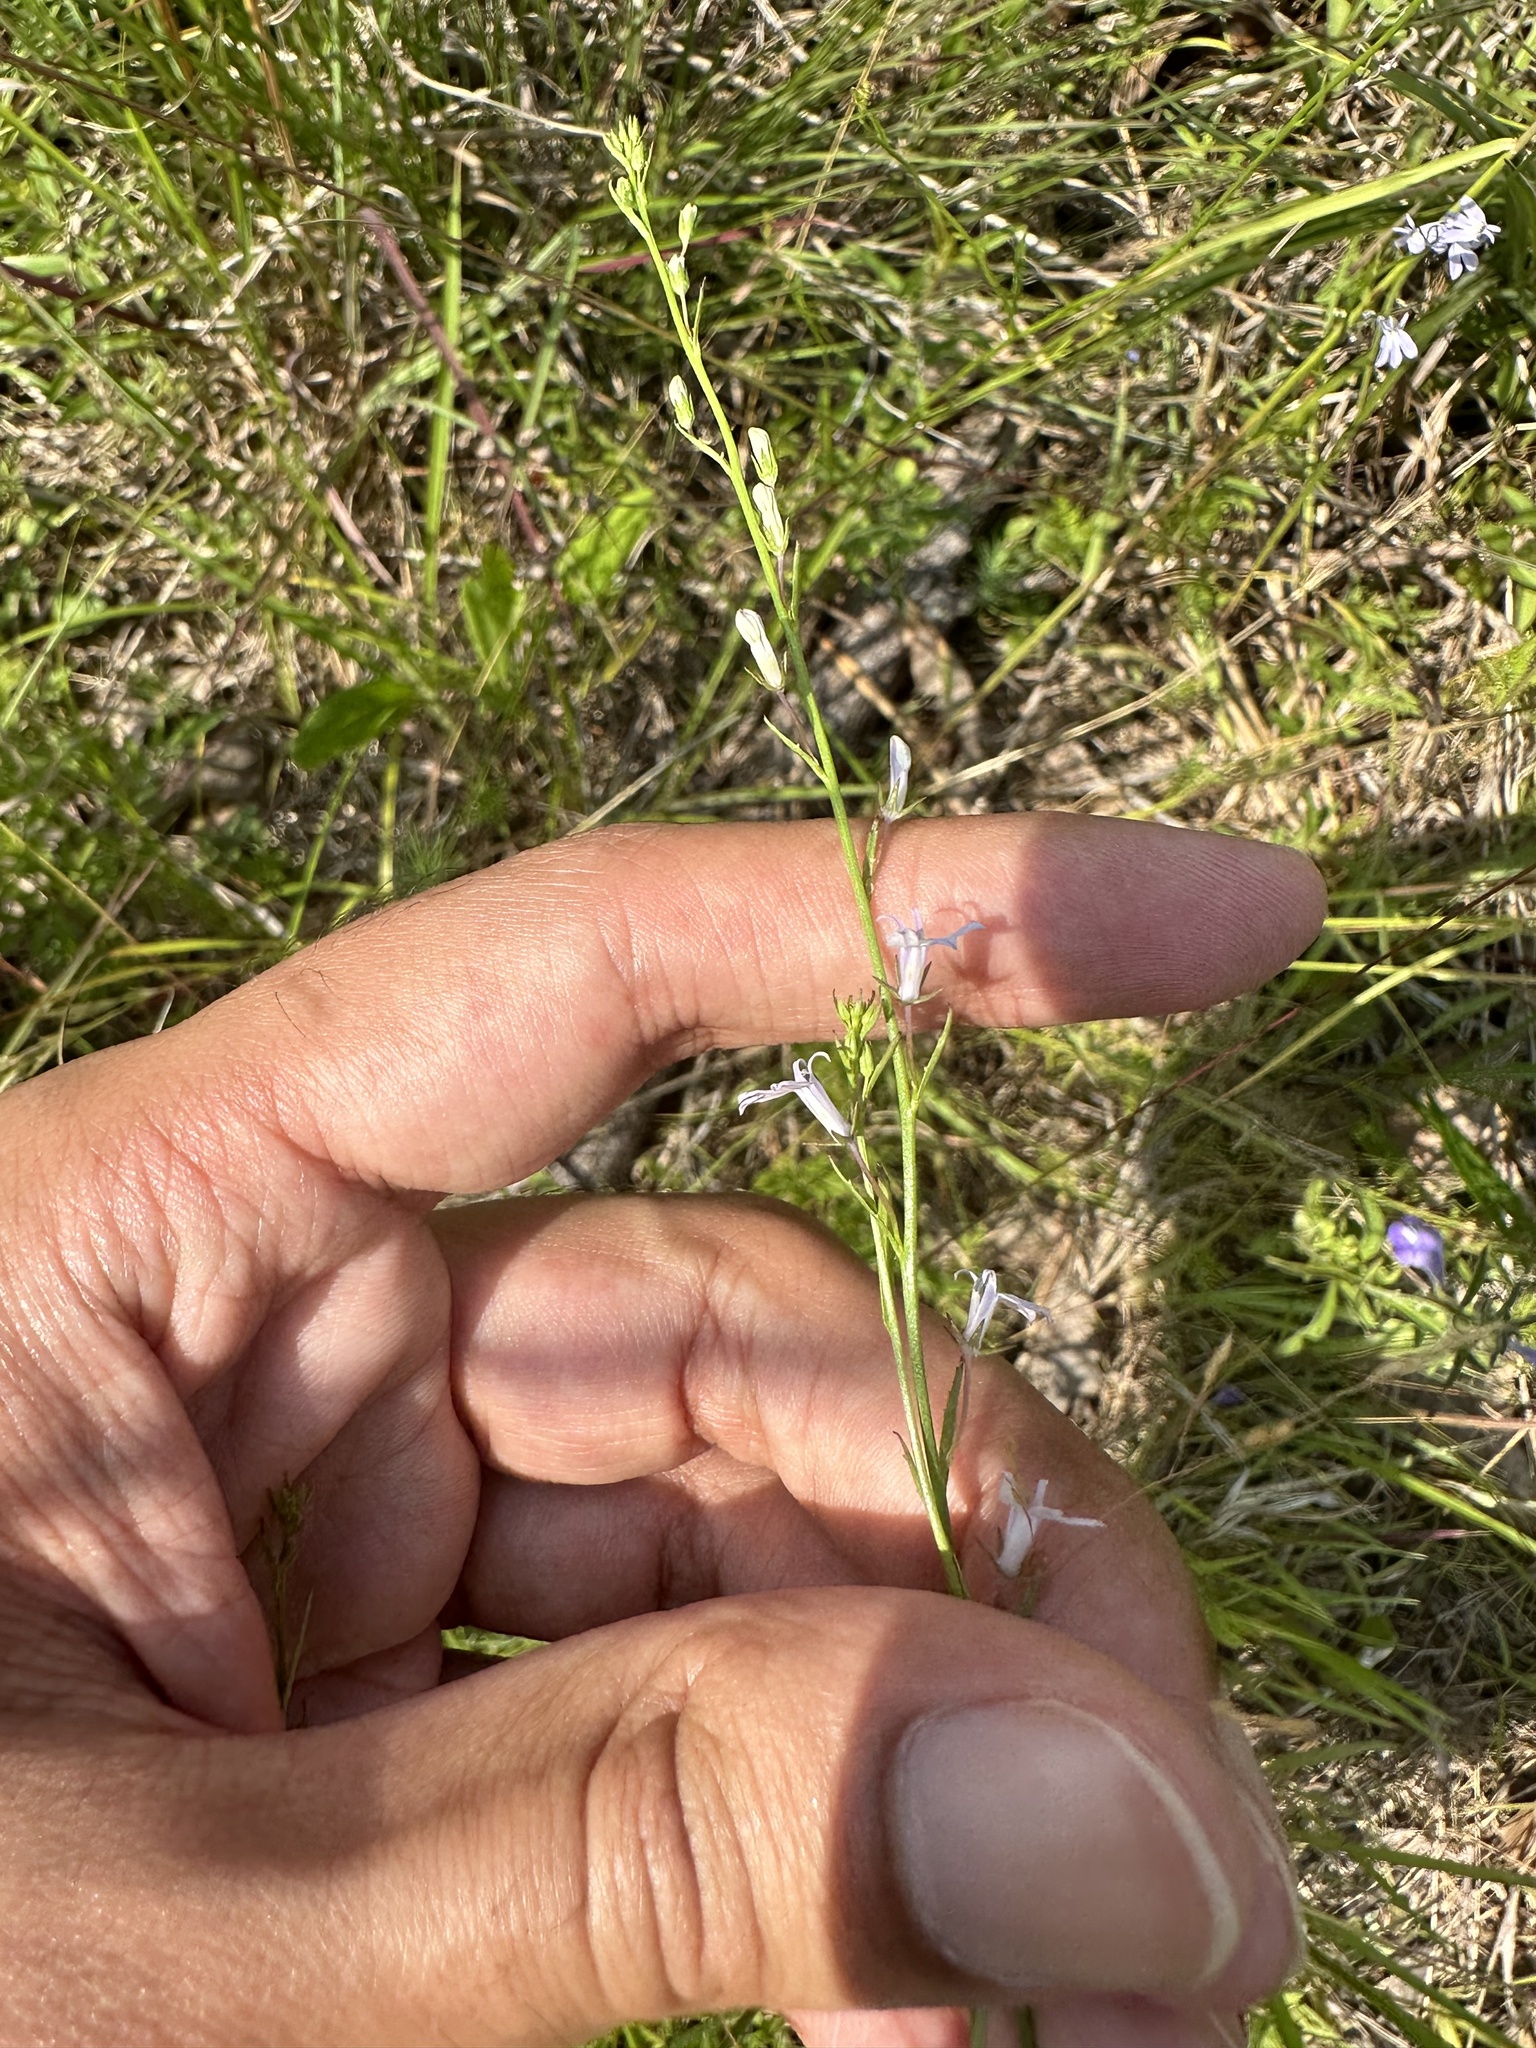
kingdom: Plantae
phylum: Tracheophyta
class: Magnoliopsida
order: Asterales
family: Campanulaceae
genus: Lobelia
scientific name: Lobelia nuttallii
